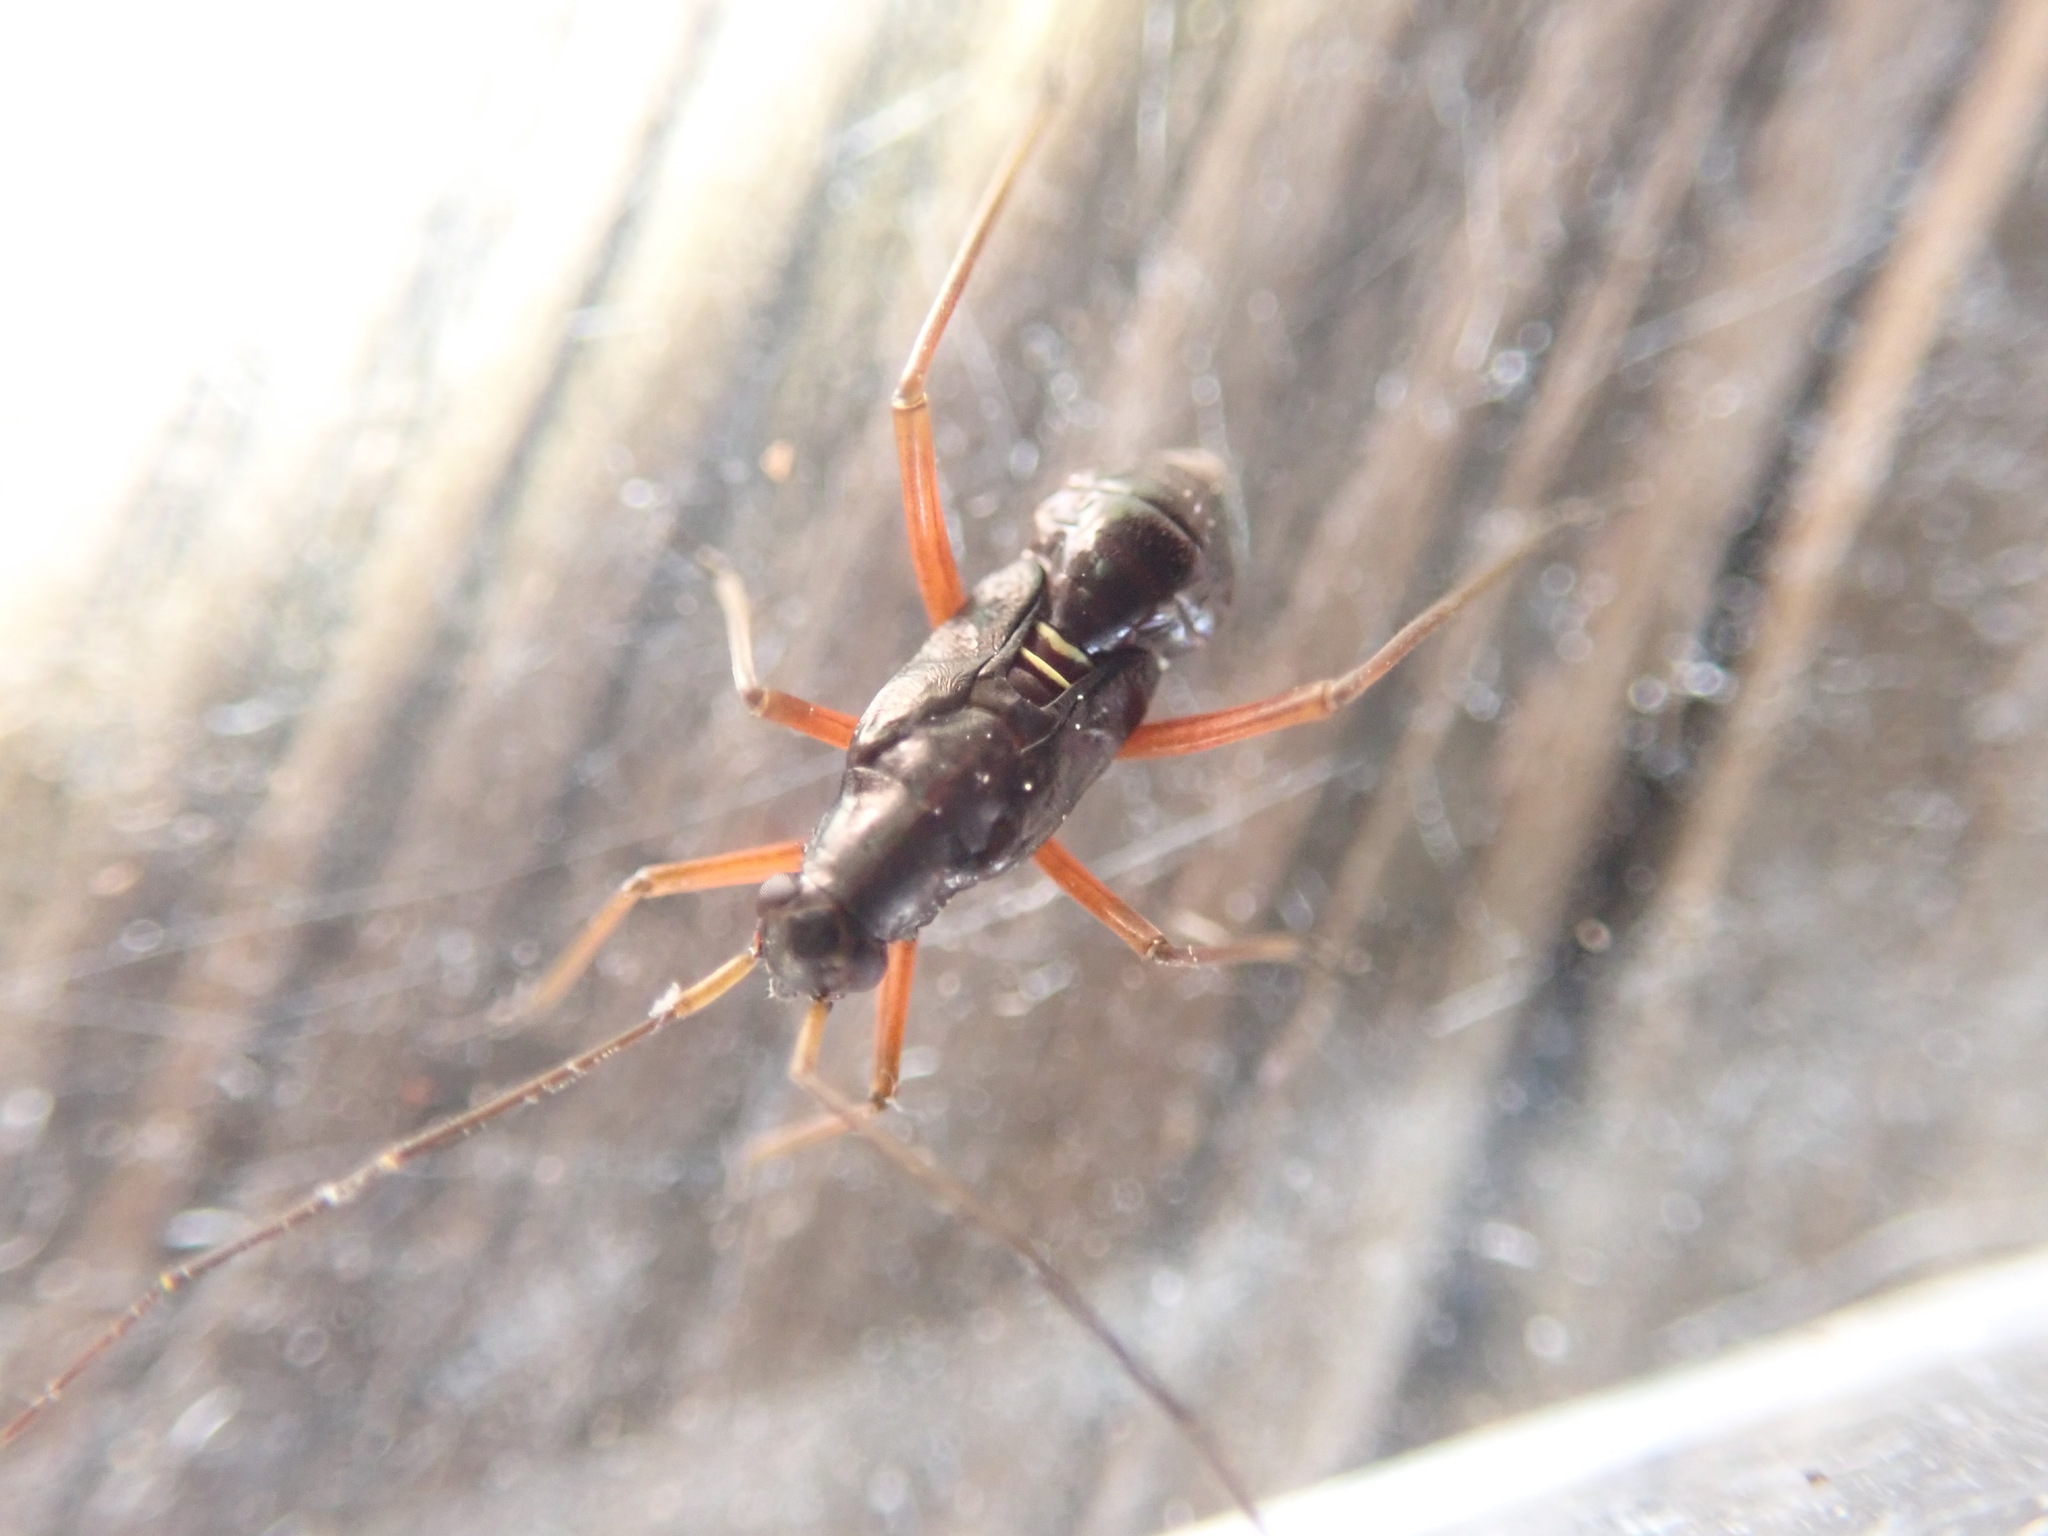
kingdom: Animalia
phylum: Arthropoda
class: Insecta
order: Hemiptera
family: Miridae
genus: Miris
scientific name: Miris striatus
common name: Fine streaked bugkin
